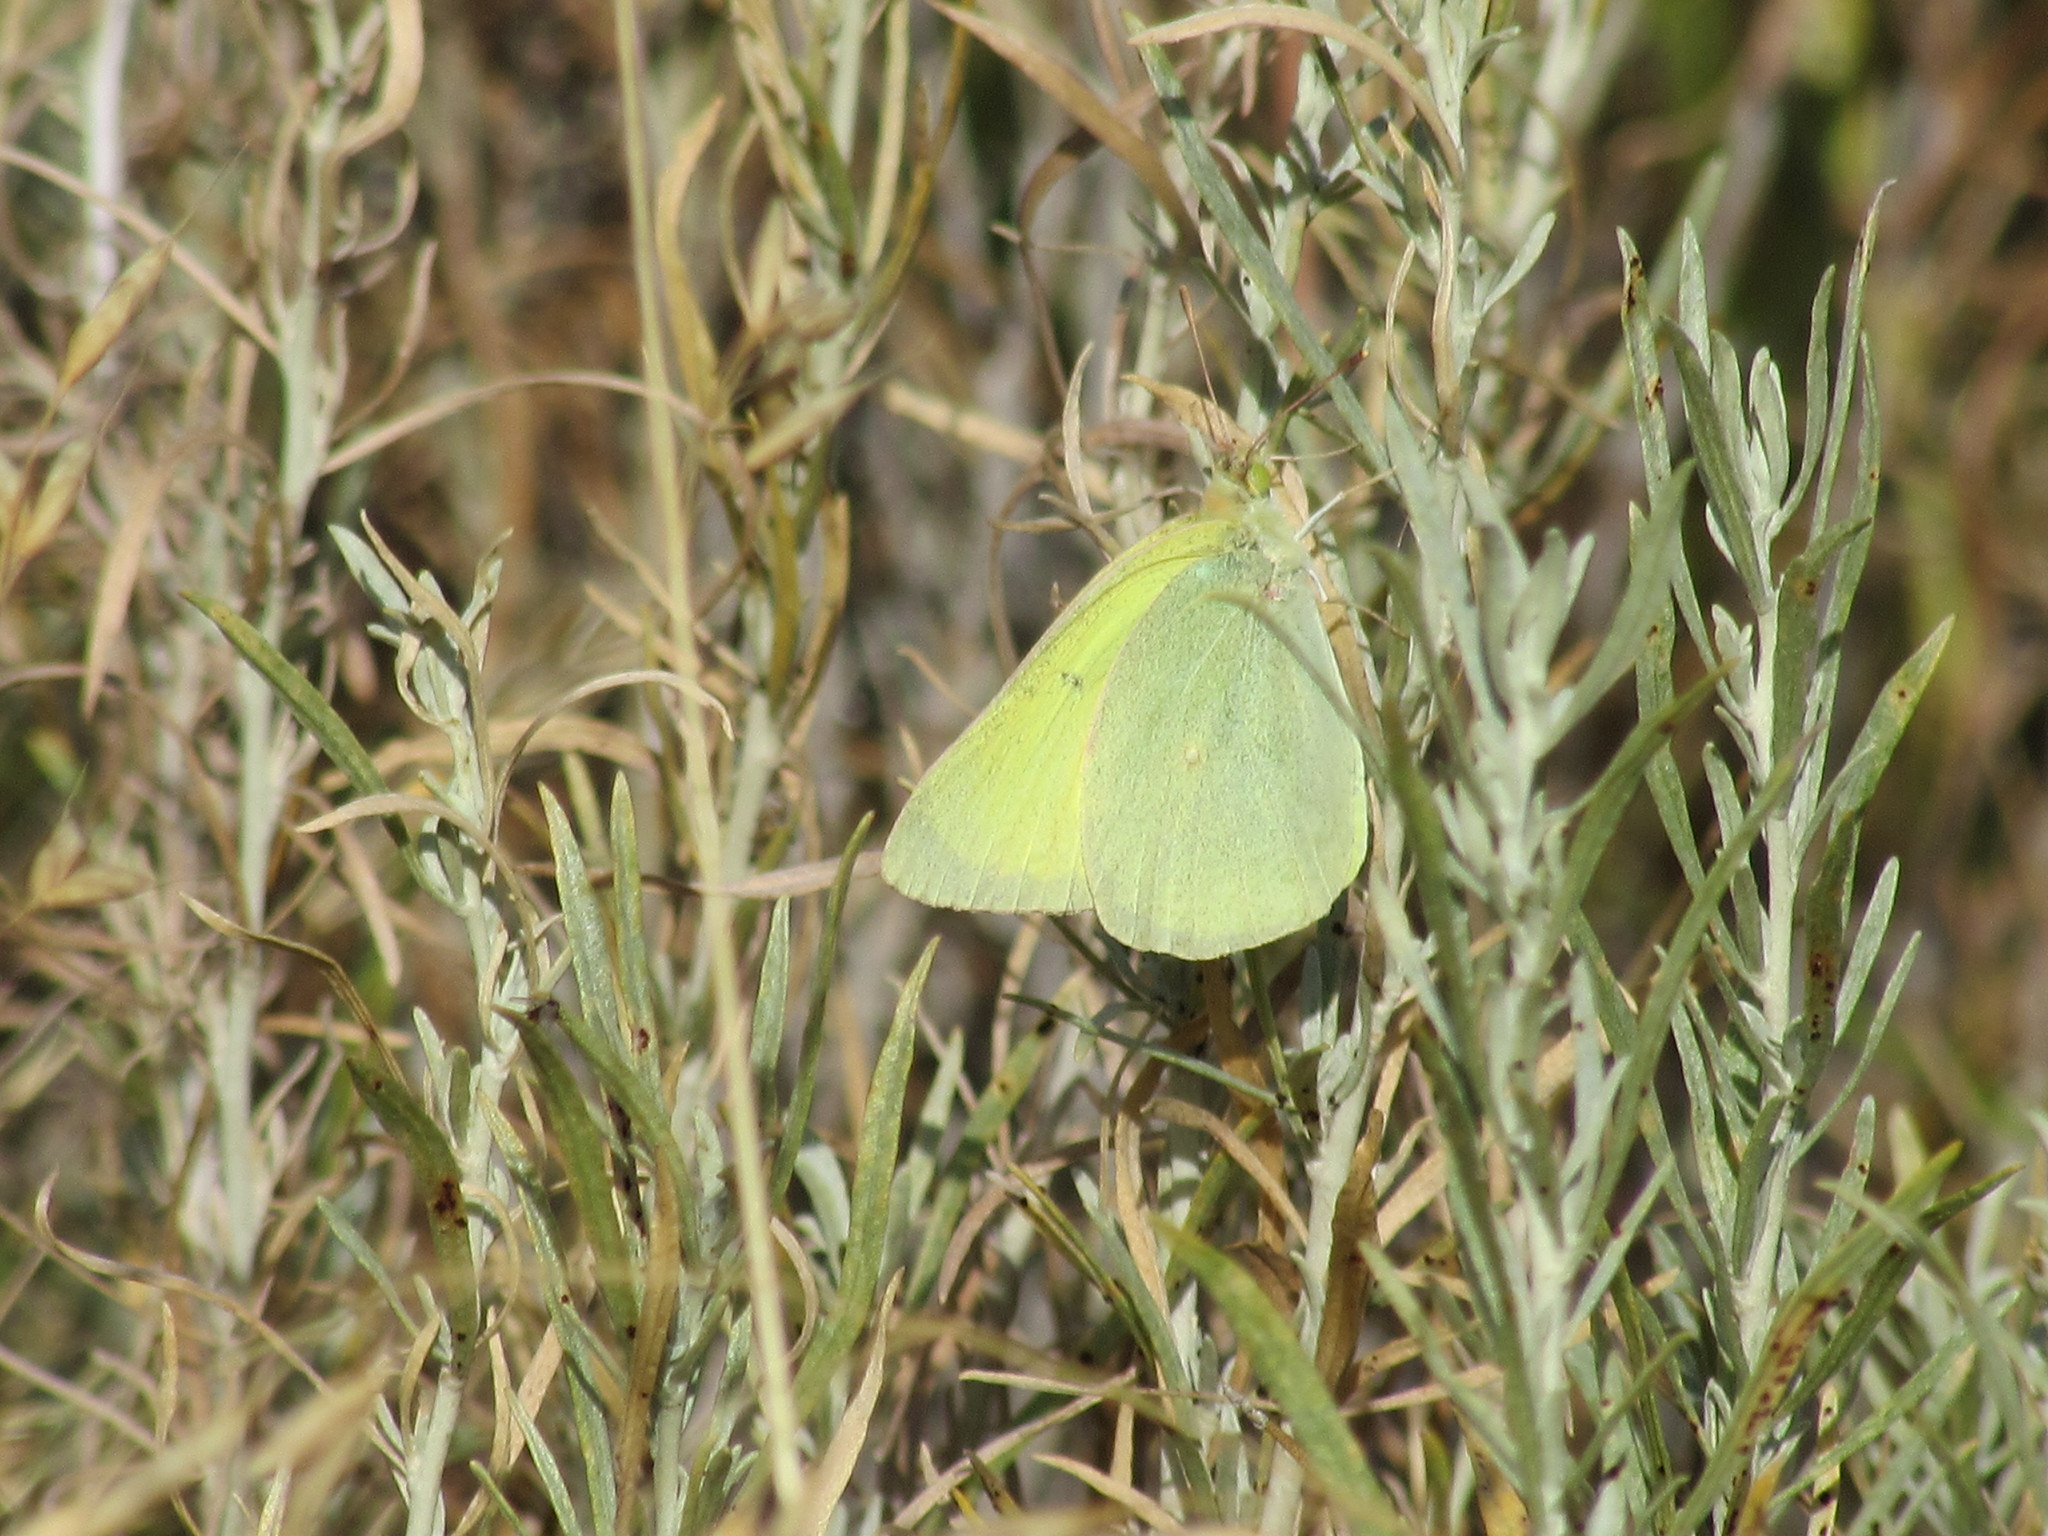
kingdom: Animalia
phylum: Arthropoda
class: Insecta
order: Lepidoptera
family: Pieridae
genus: Colias
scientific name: Colias alexandra
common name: Alexandra sulphur
